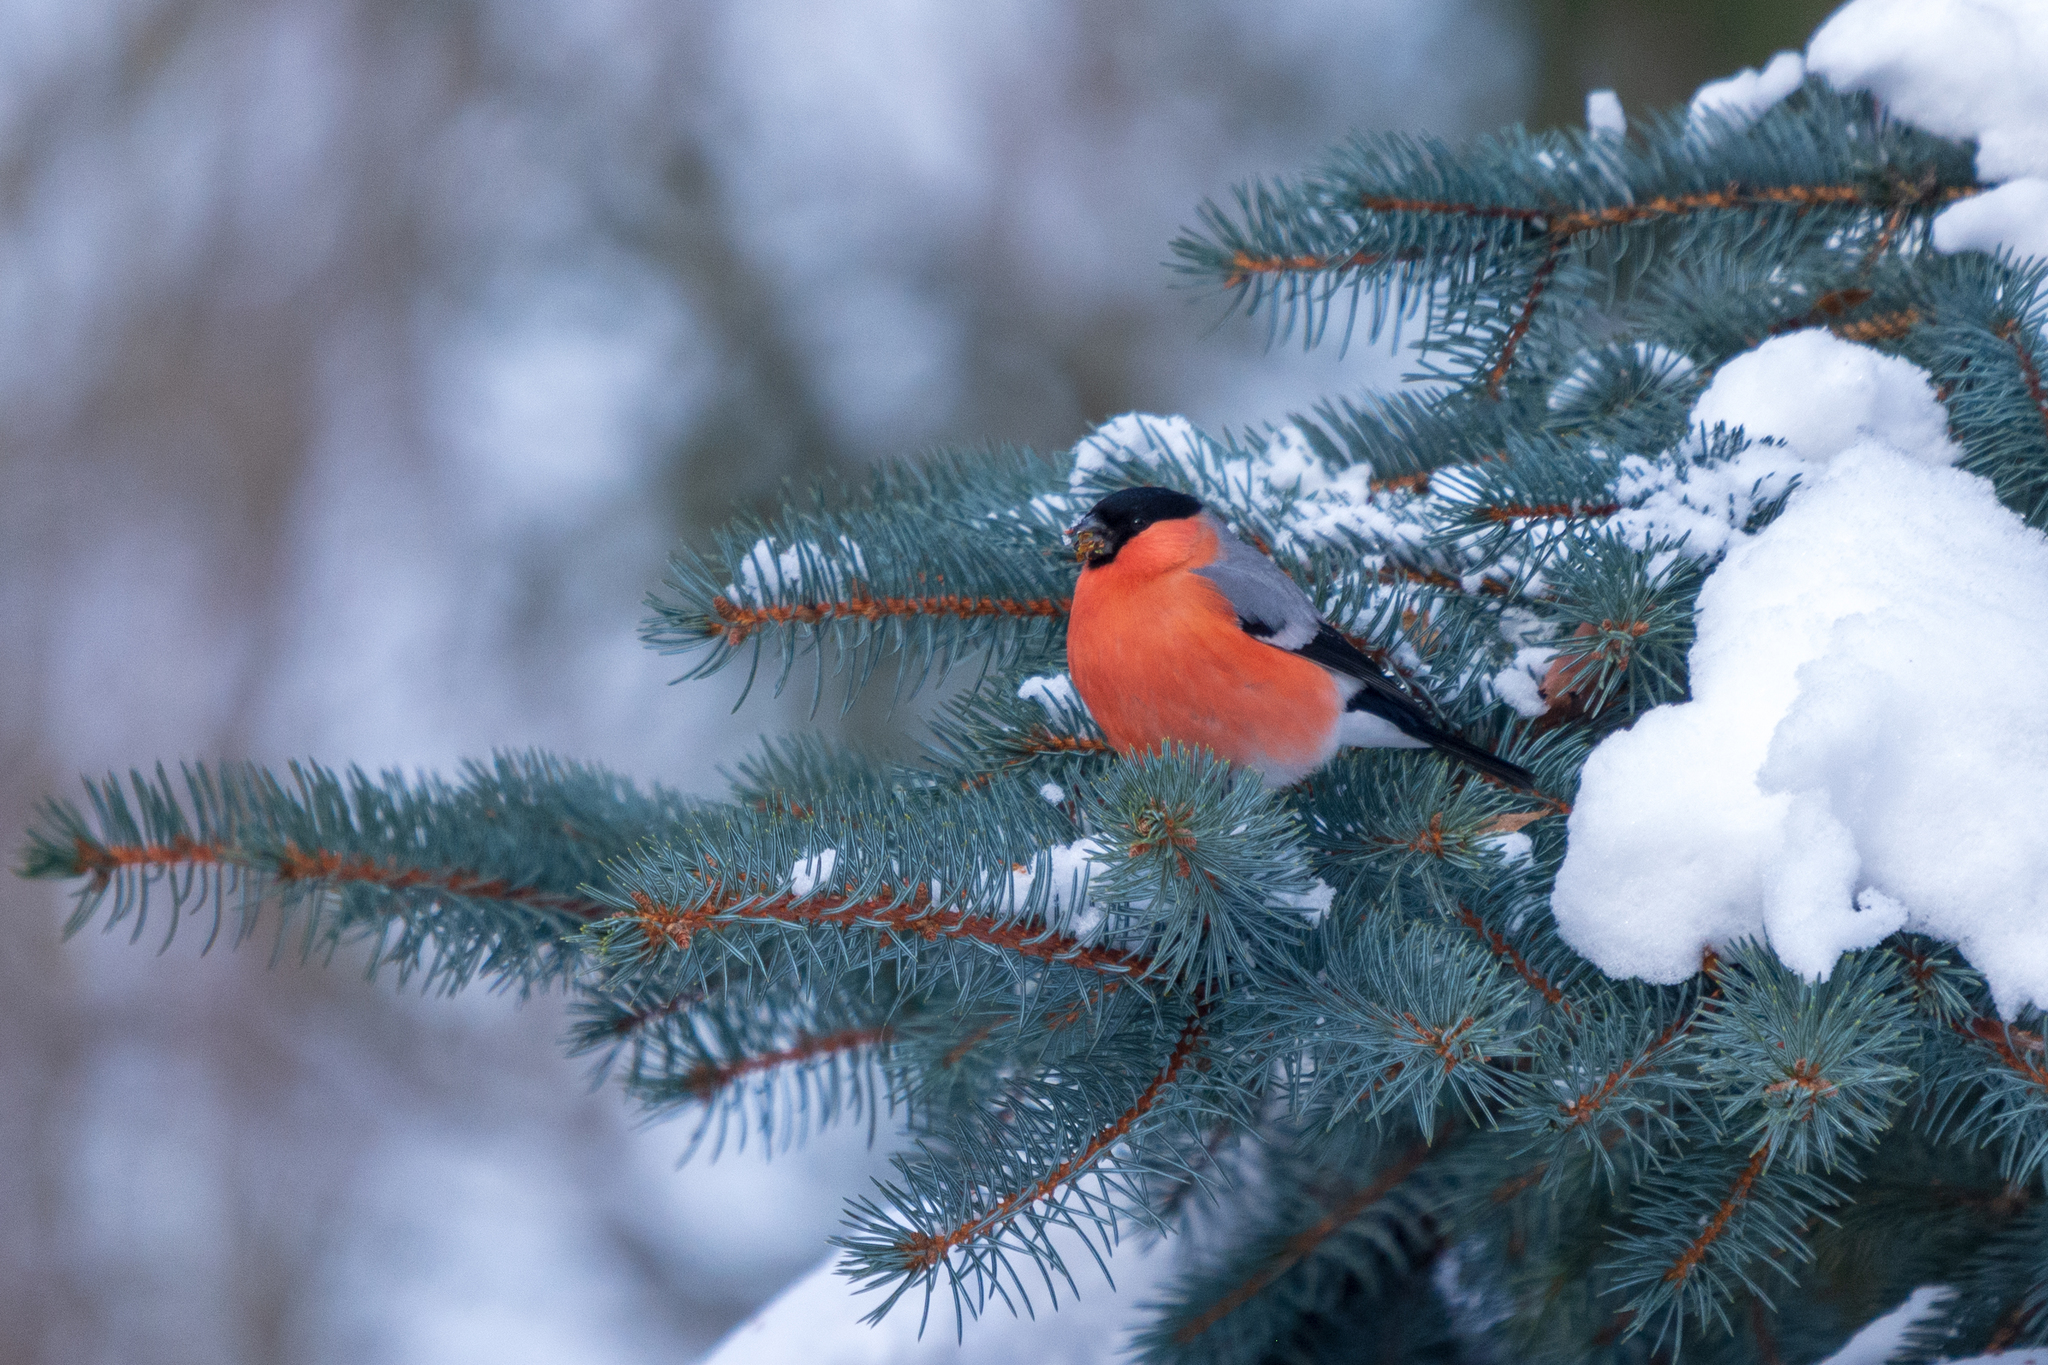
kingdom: Animalia
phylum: Chordata
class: Aves
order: Passeriformes
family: Fringillidae
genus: Pyrrhula
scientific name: Pyrrhula pyrrhula
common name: Eurasian bullfinch
